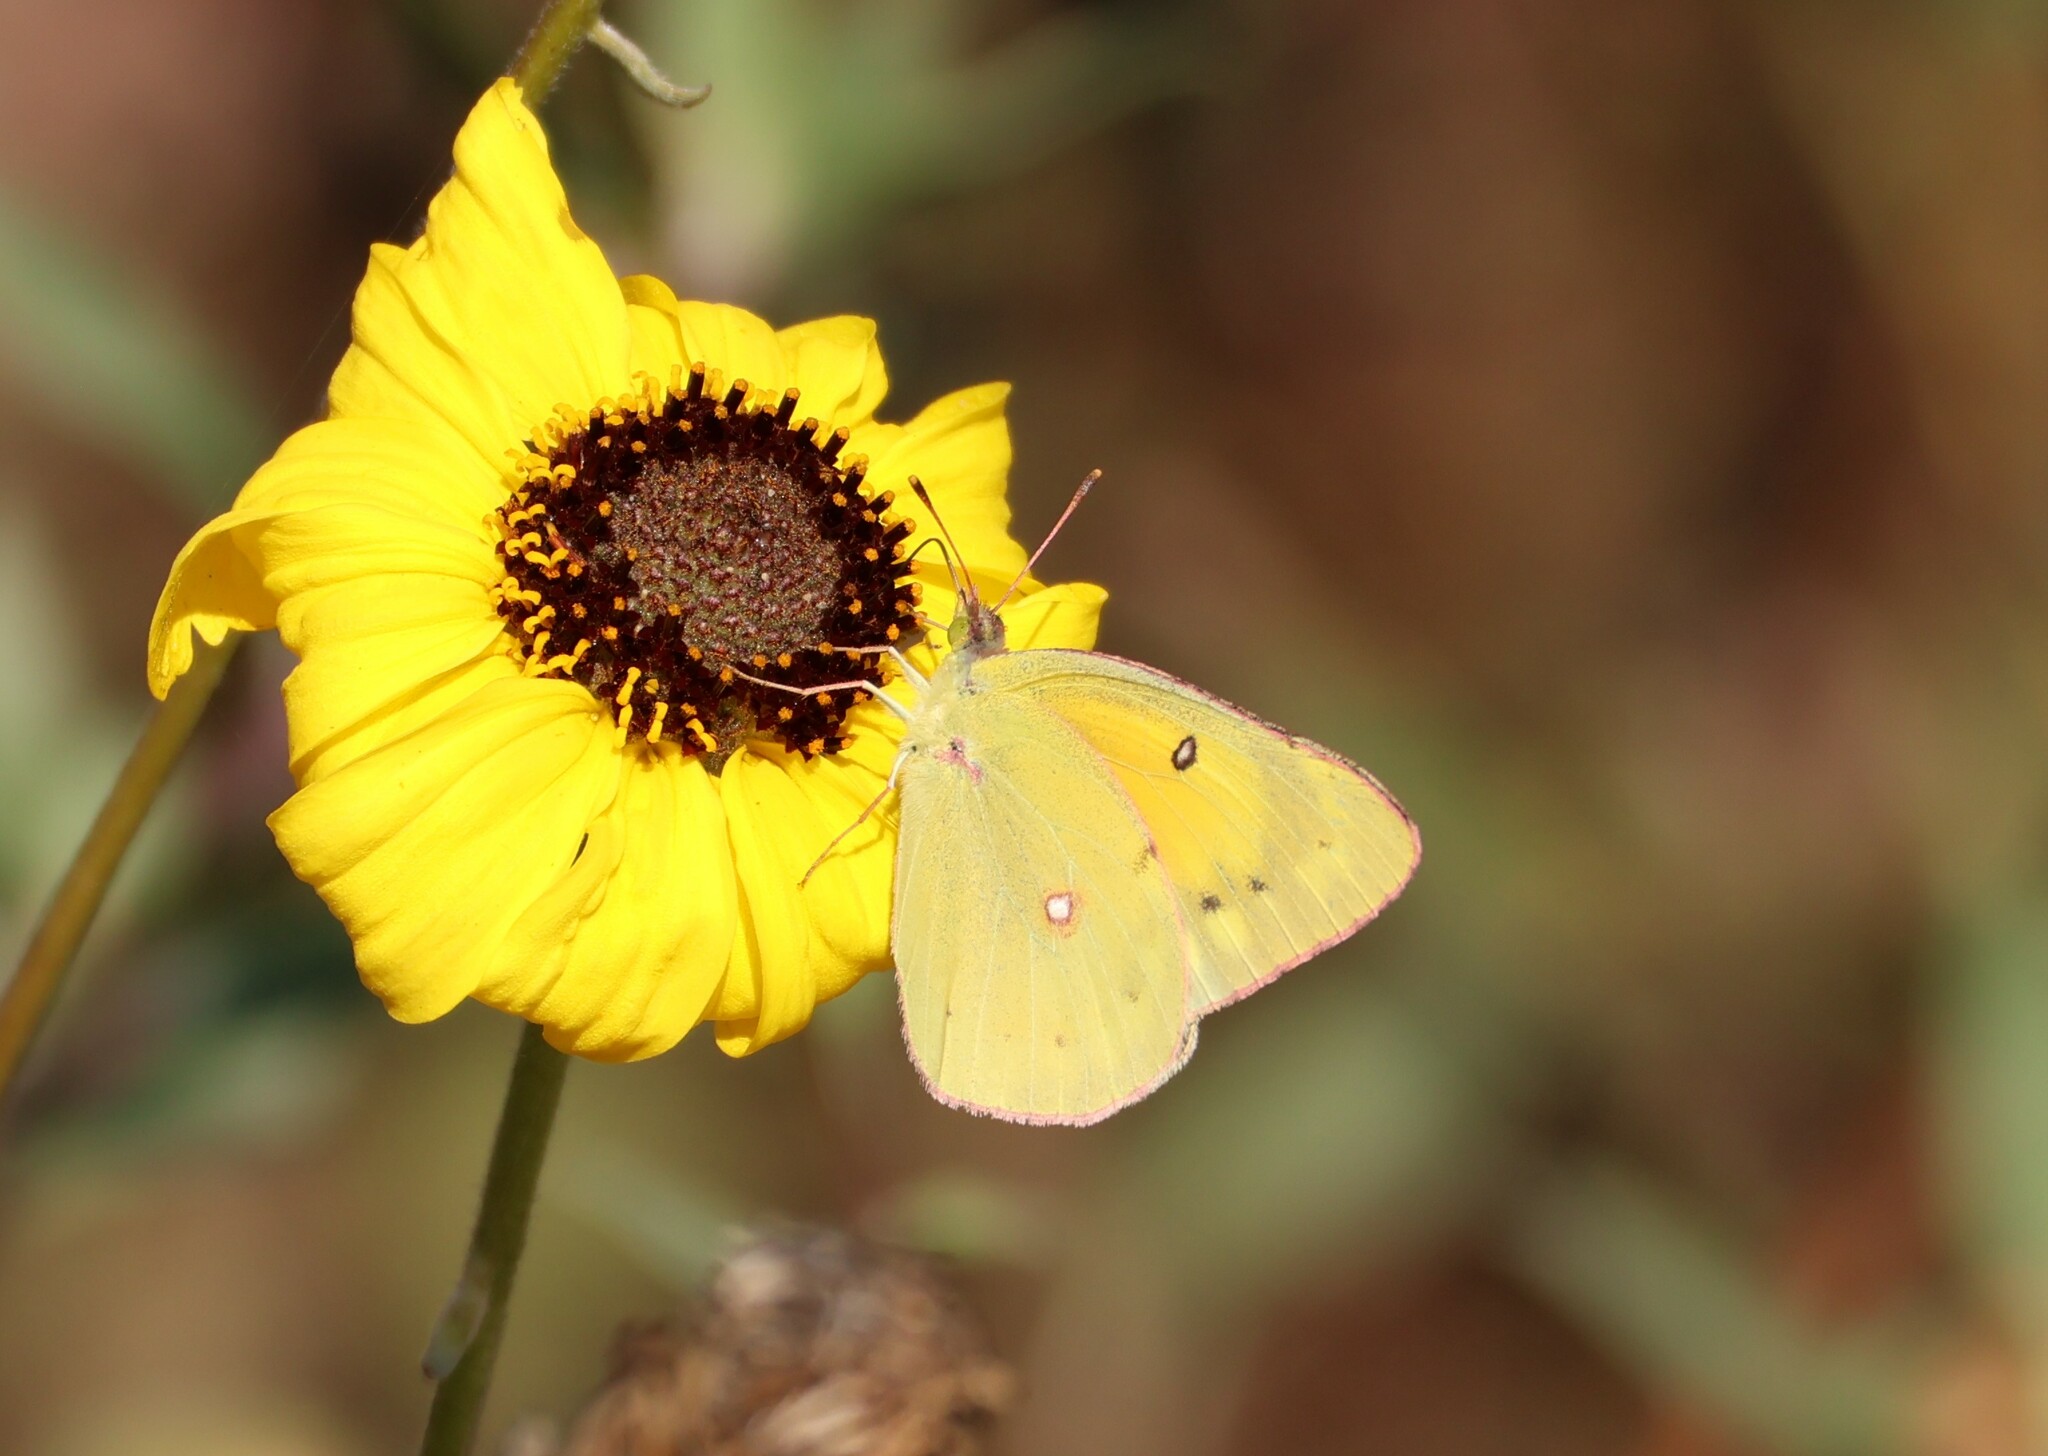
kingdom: Animalia
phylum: Arthropoda
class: Insecta
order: Lepidoptera
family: Pieridae
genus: Colias
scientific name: Colias eurytheme
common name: Alfalfa butterfly
